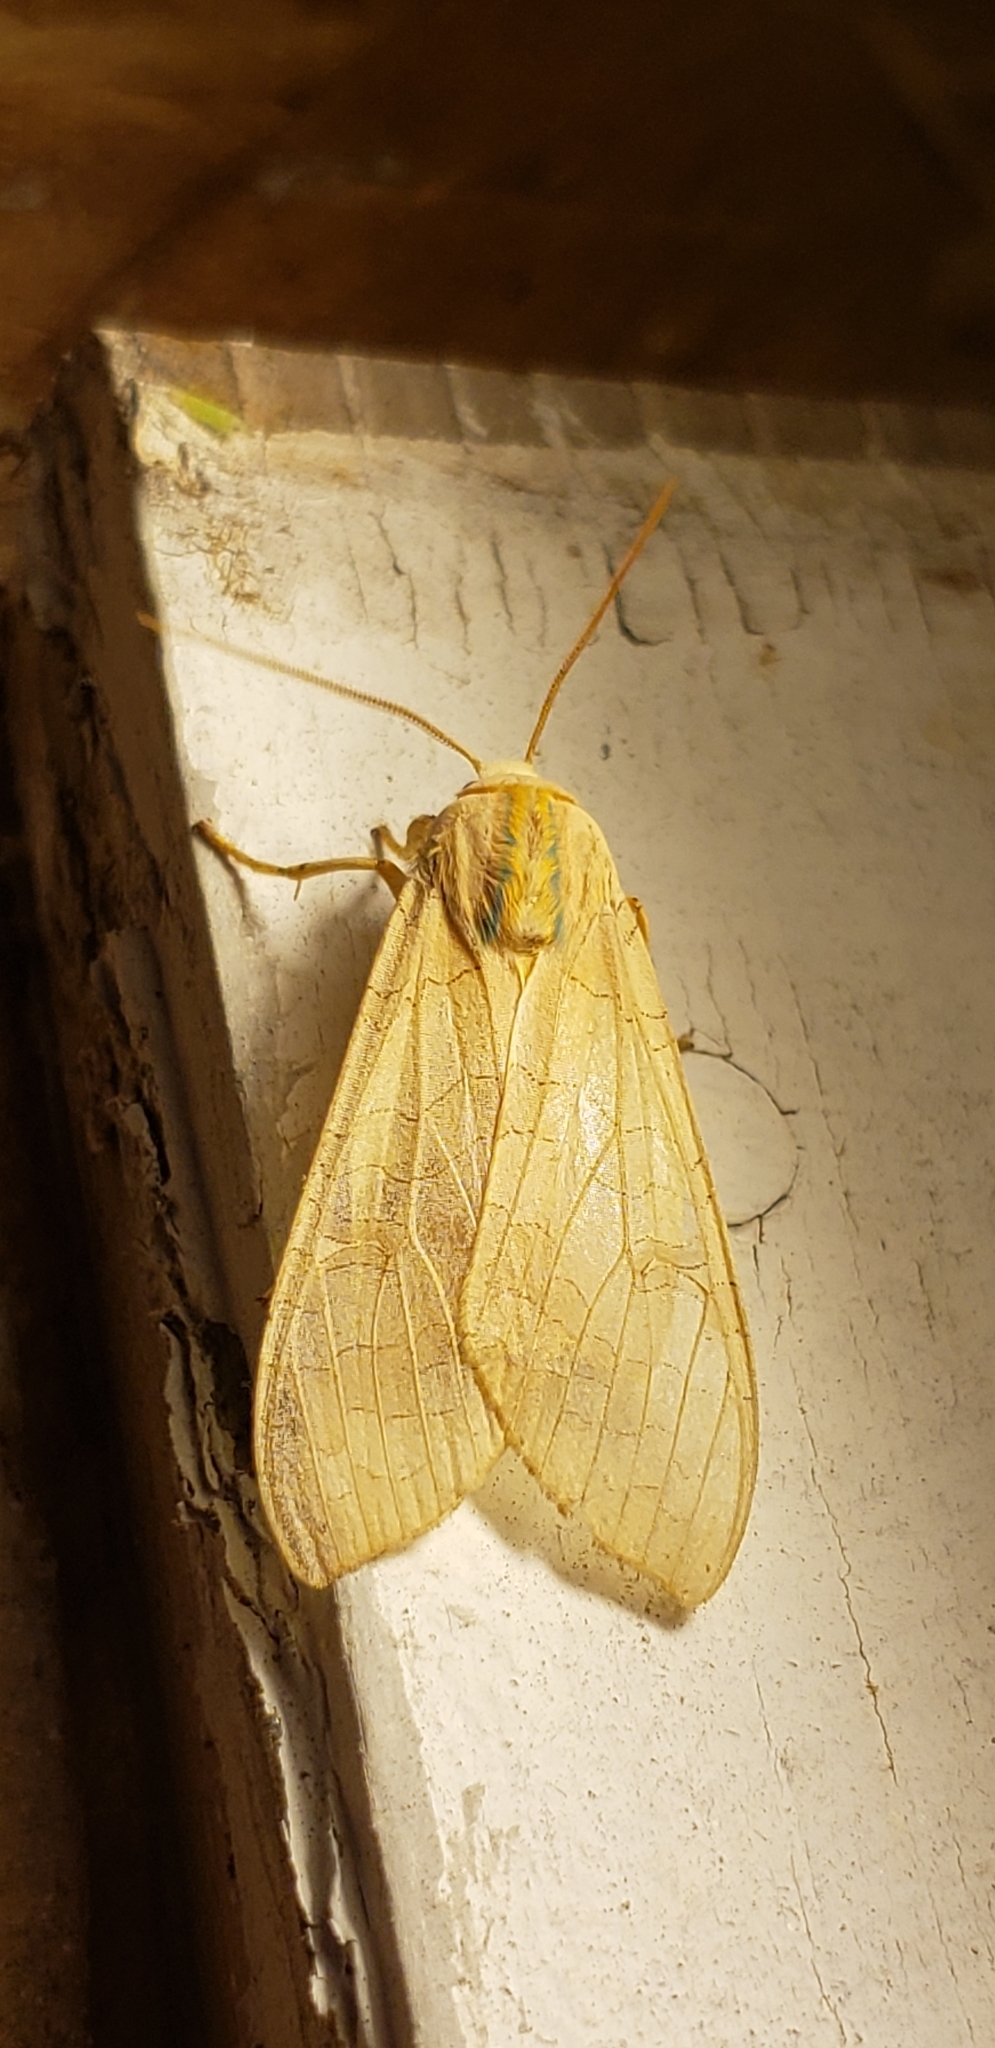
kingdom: Animalia
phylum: Arthropoda
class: Insecta
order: Lepidoptera
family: Erebidae
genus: Halysidota
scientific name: Halysidota
